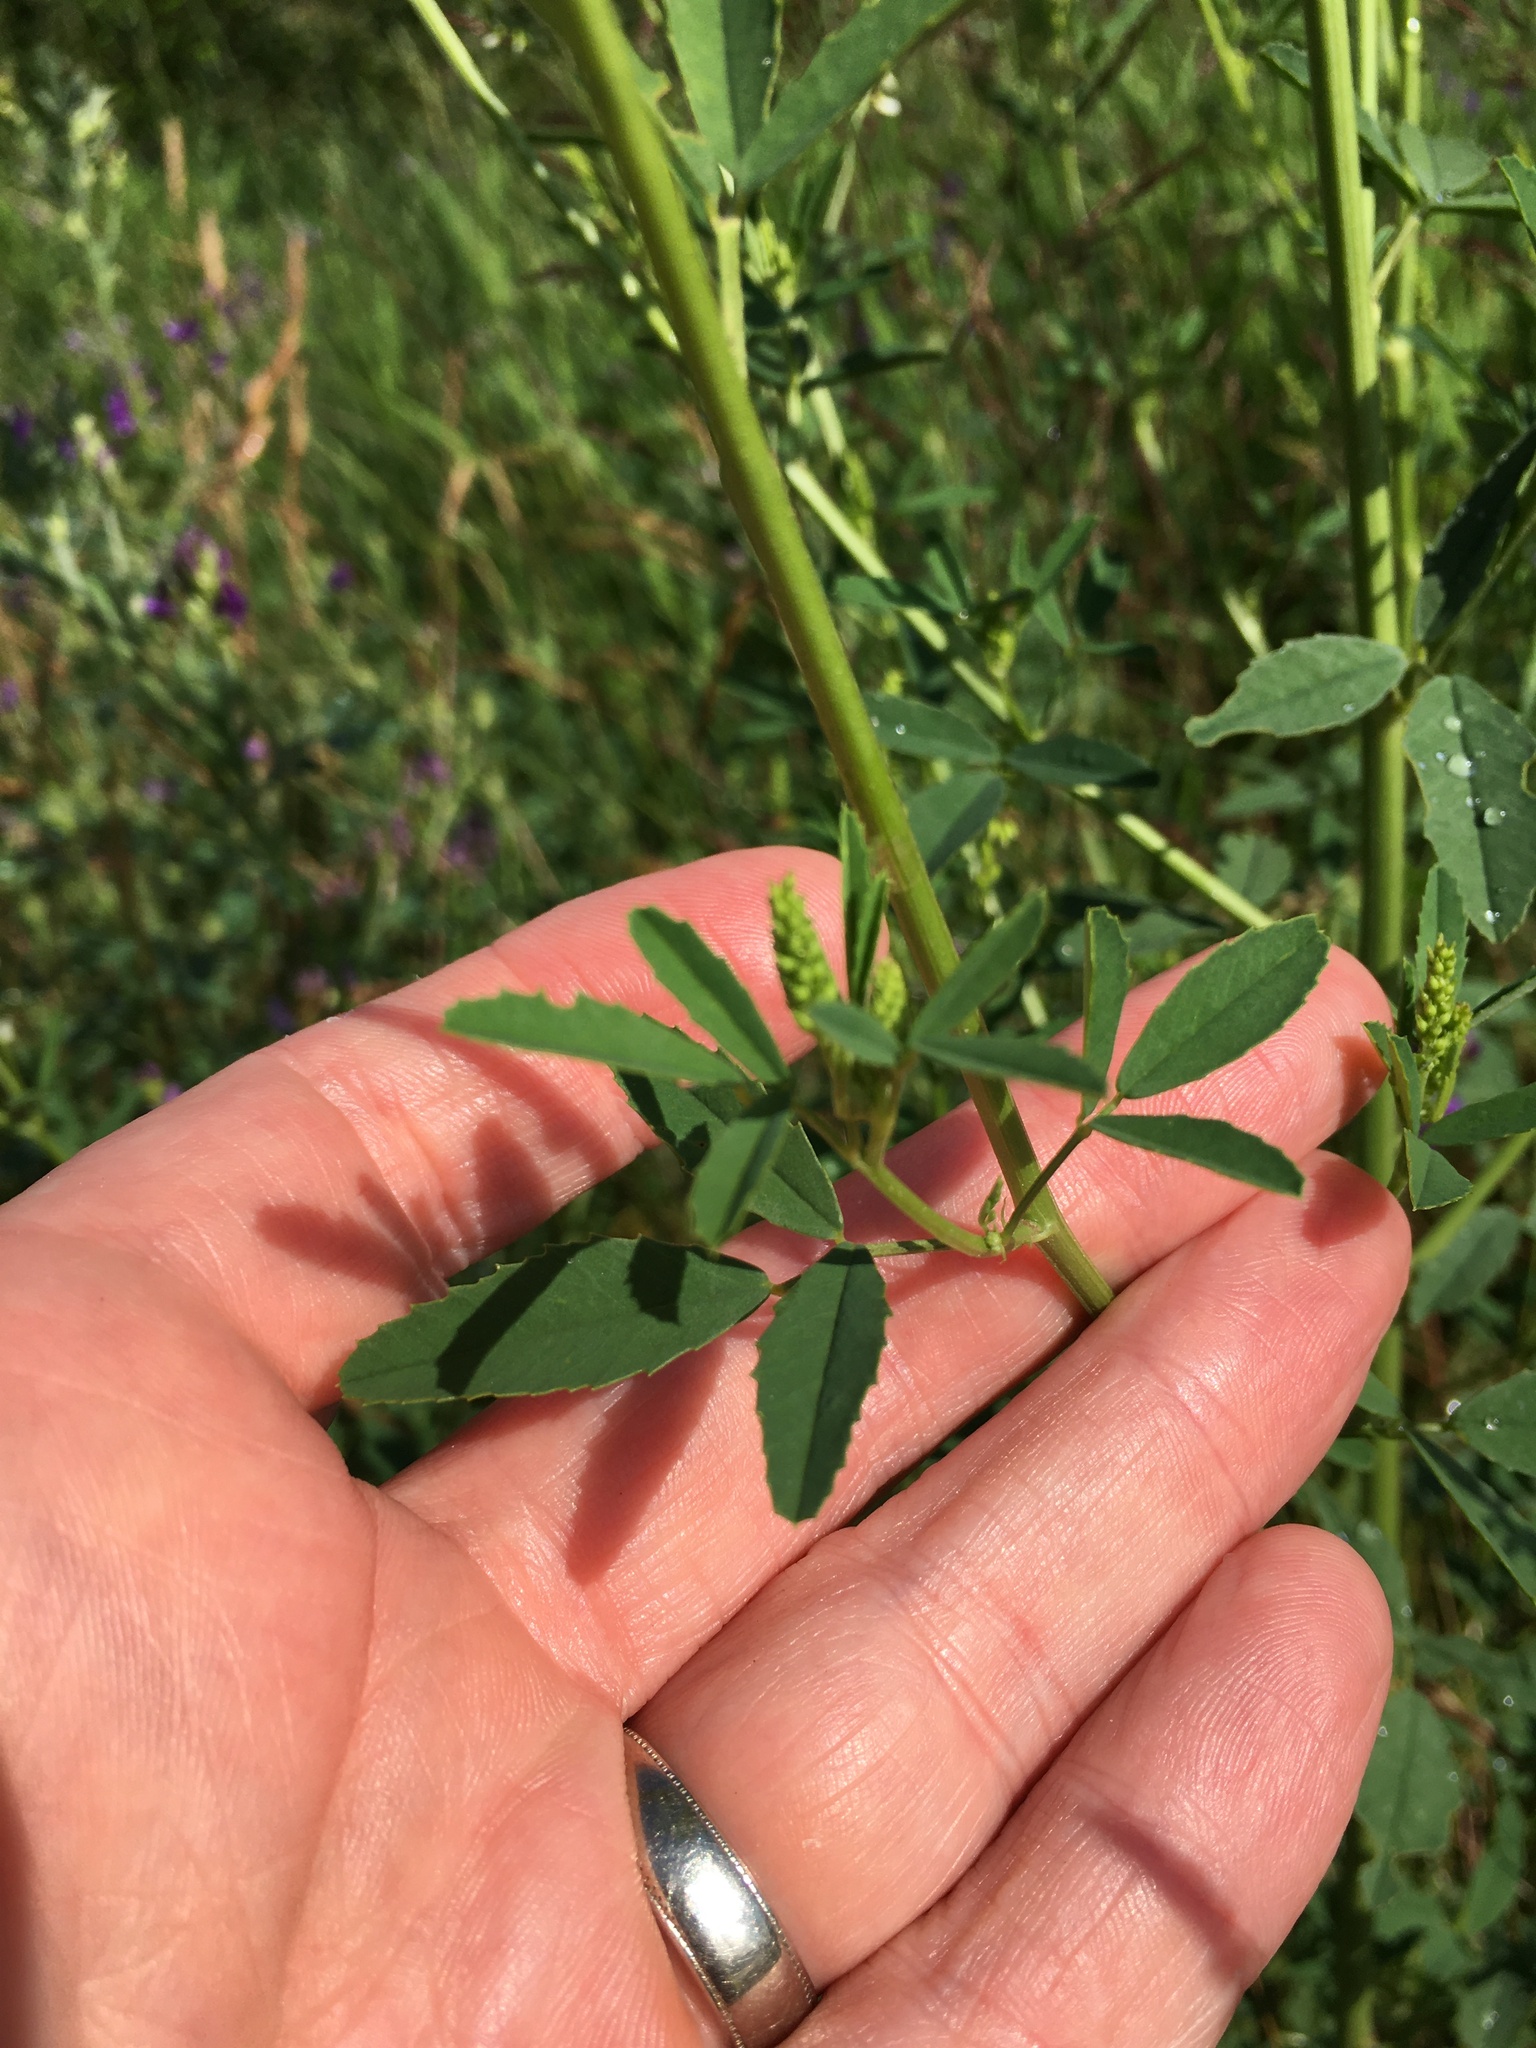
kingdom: Plantae
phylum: Tracheophyta
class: Magnoliopsida
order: Fabales
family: Fabaceae
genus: Melilotus
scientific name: Melilotus albus
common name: White melilot
